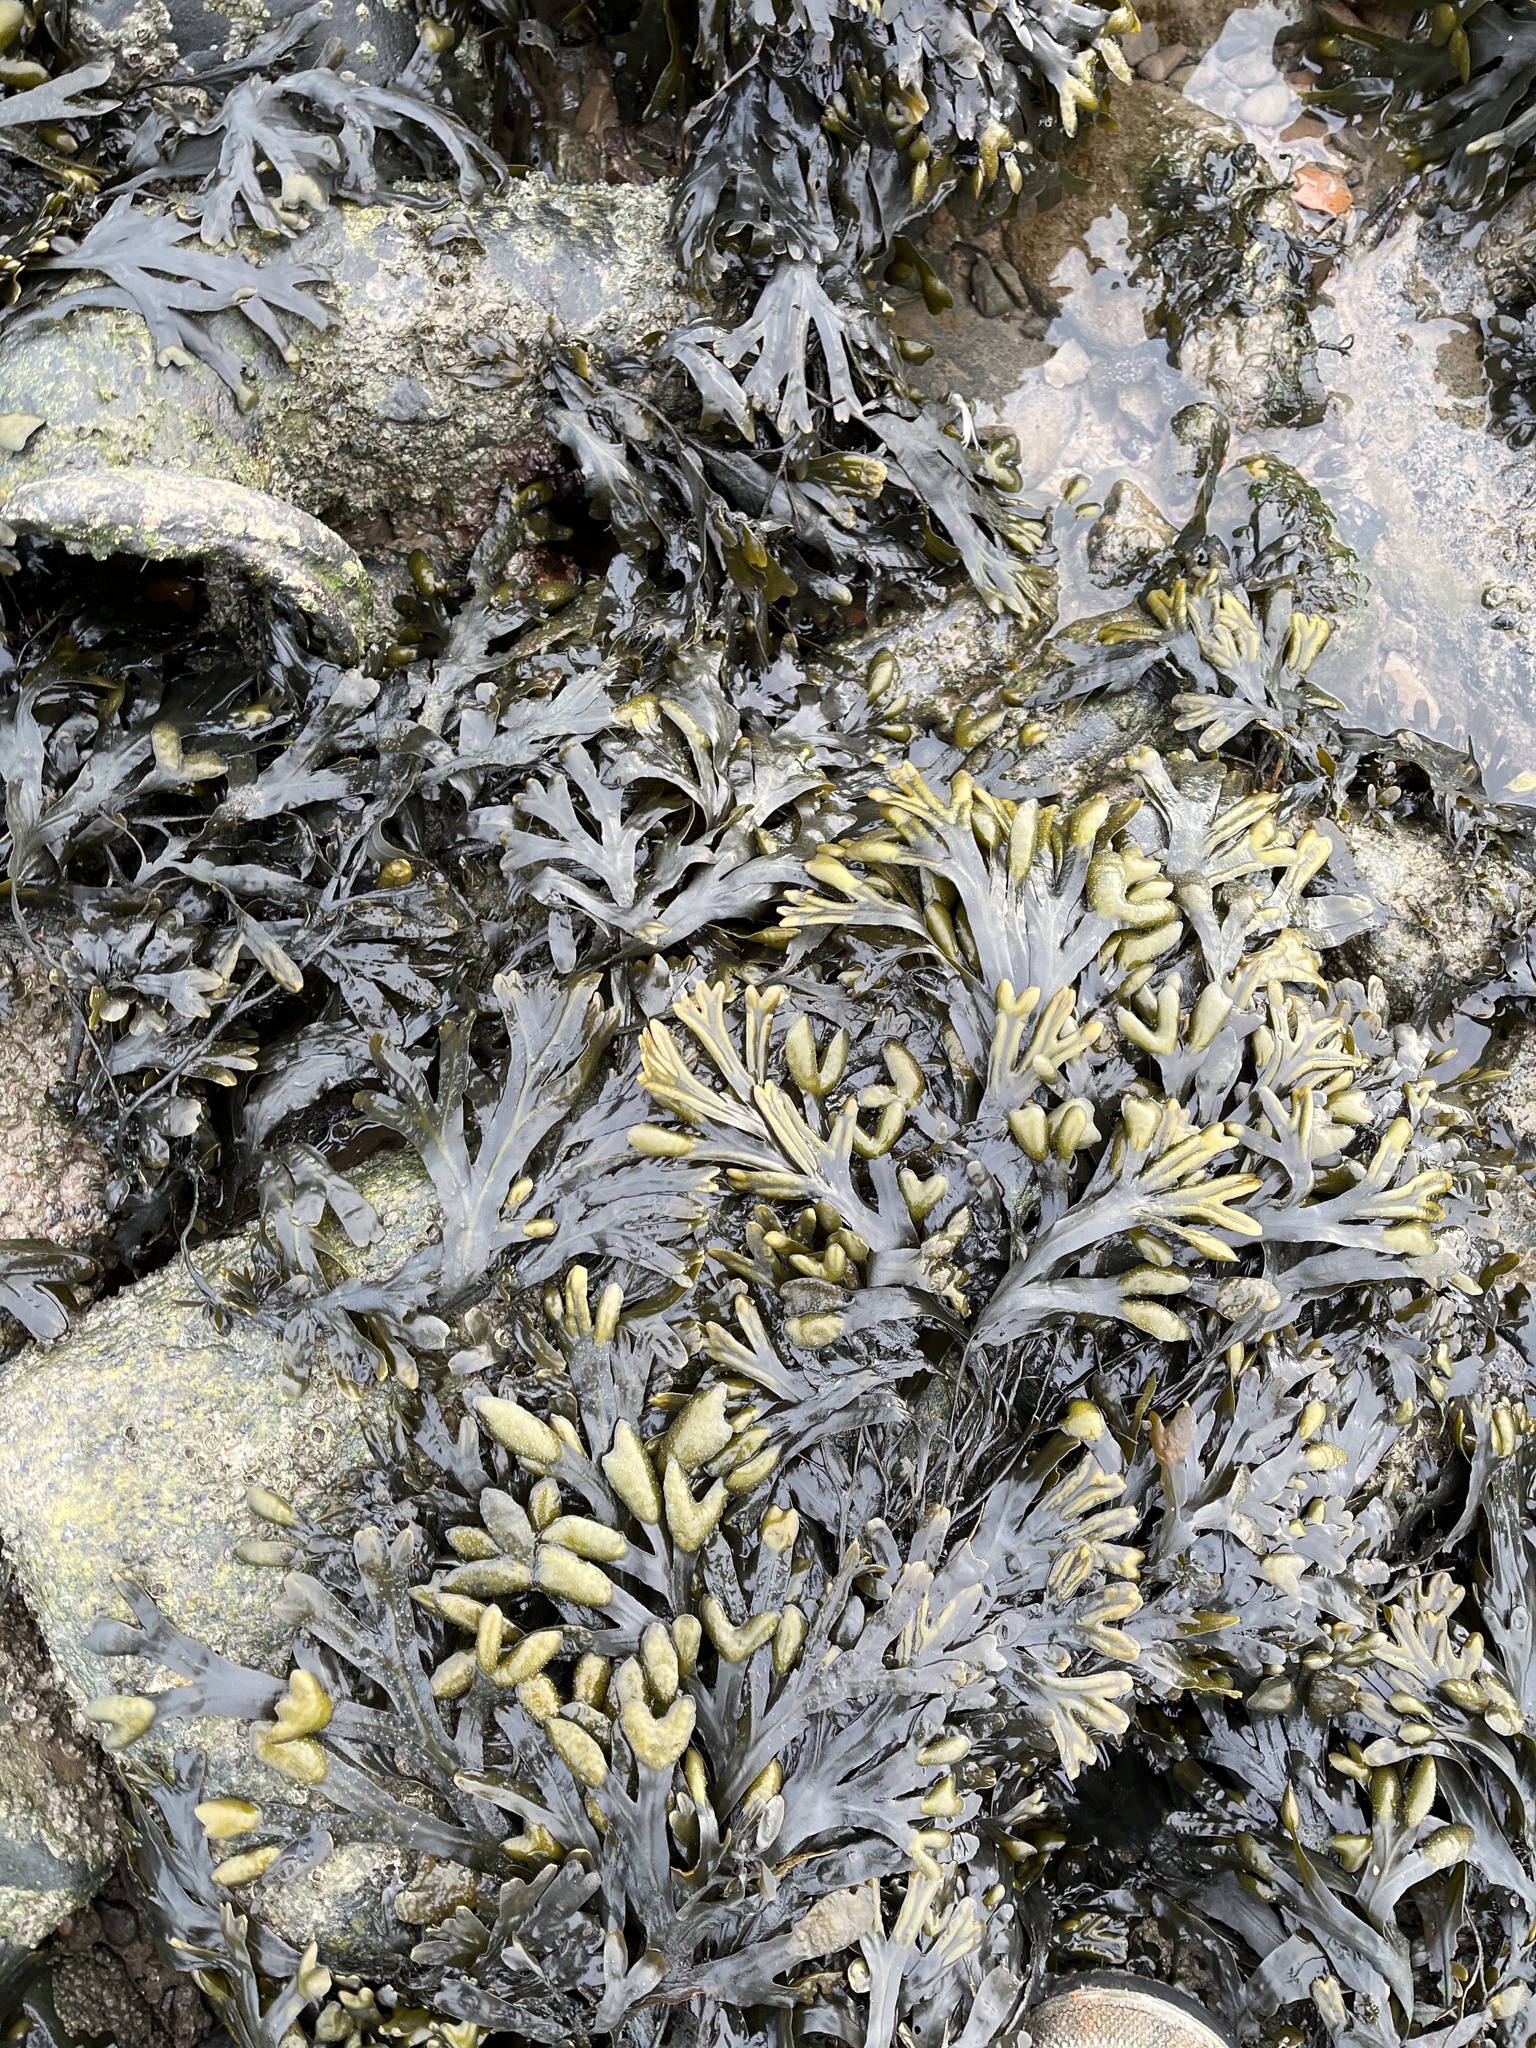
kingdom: Chromista
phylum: Ochrophyta
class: Phaeophyceae
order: Fucales
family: Fucaceae
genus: Fucus
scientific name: Fucus ceranoides
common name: Horned wrack
